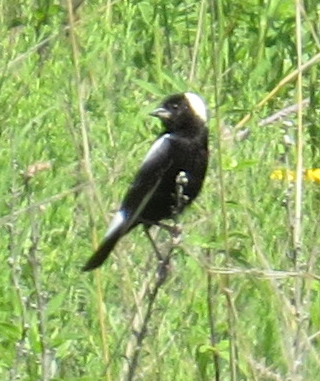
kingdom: Animalia
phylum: Chordata
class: Aves
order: Passeriformes
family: Icteridae
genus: Dolichonyx
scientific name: Dolichonyx oryzivorus
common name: Bobolink
